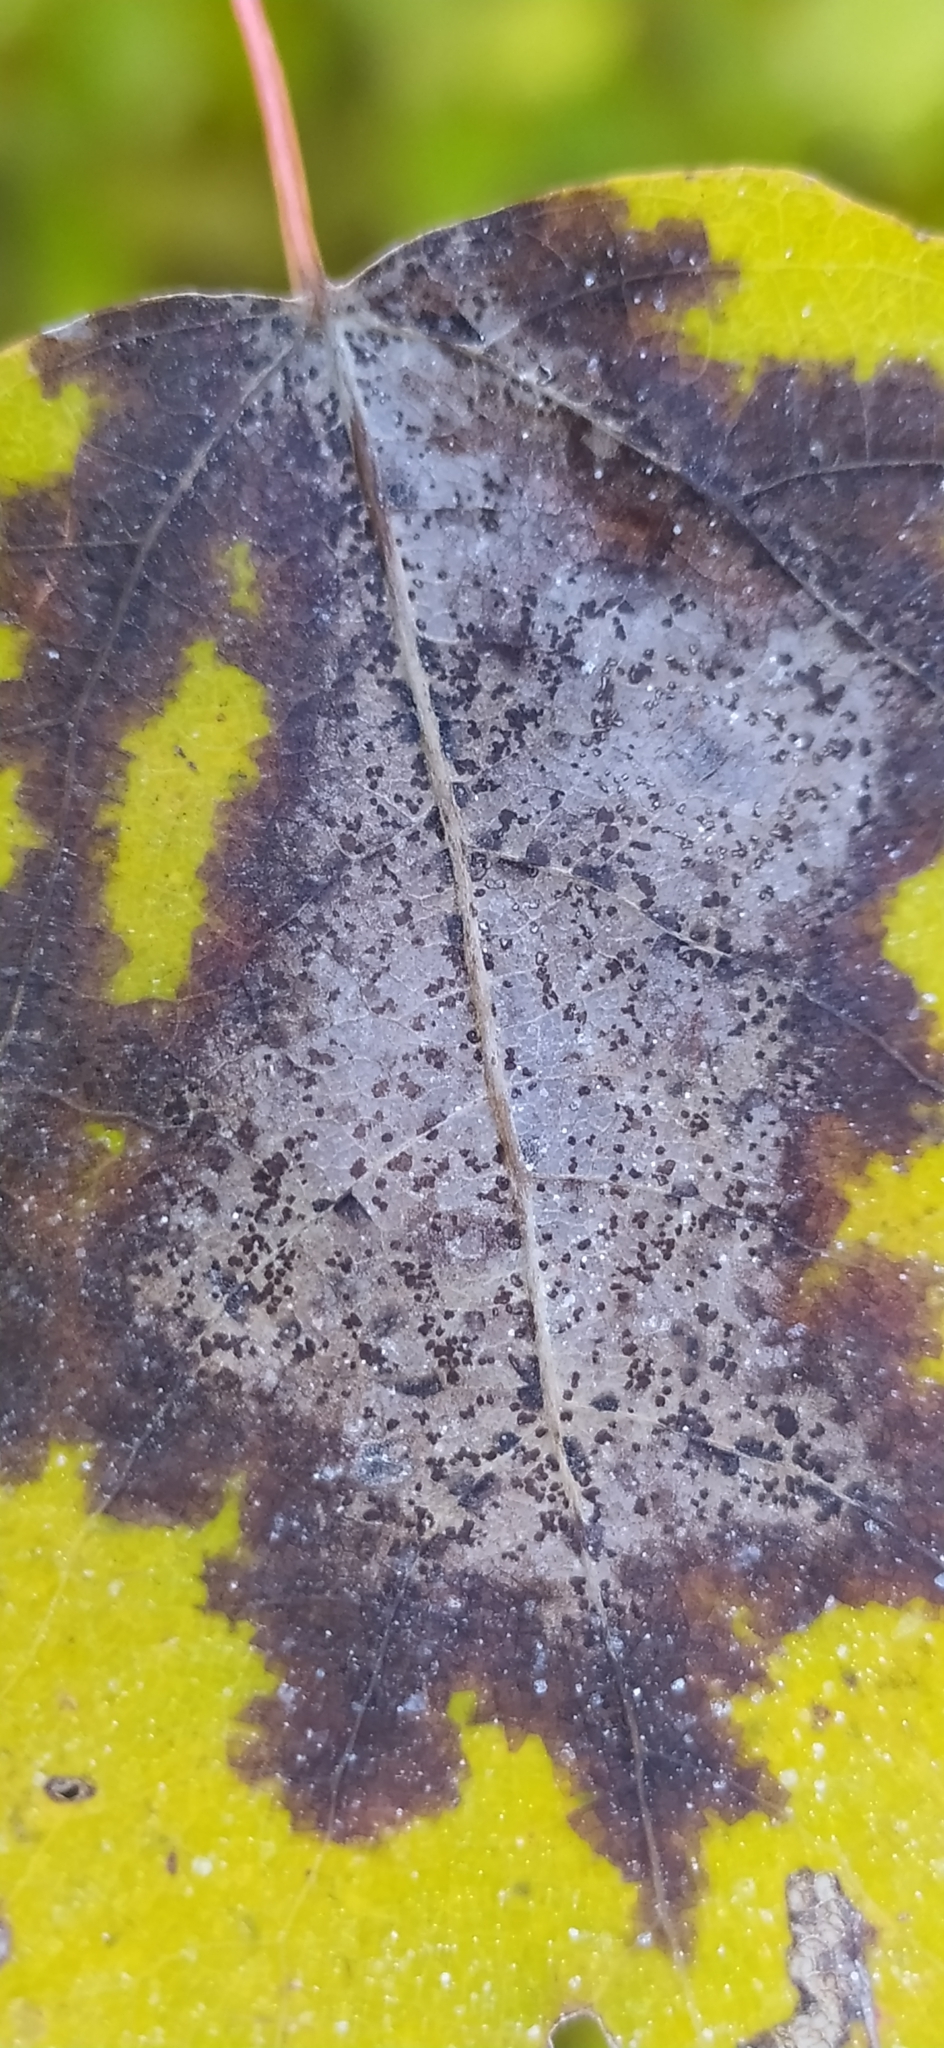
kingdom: Fungi
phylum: Ascomycota
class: Sordariomycetes
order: Diaporthales
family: Gnomoniaceae
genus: Titaeosporina
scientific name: Titaeosporina tremulae
